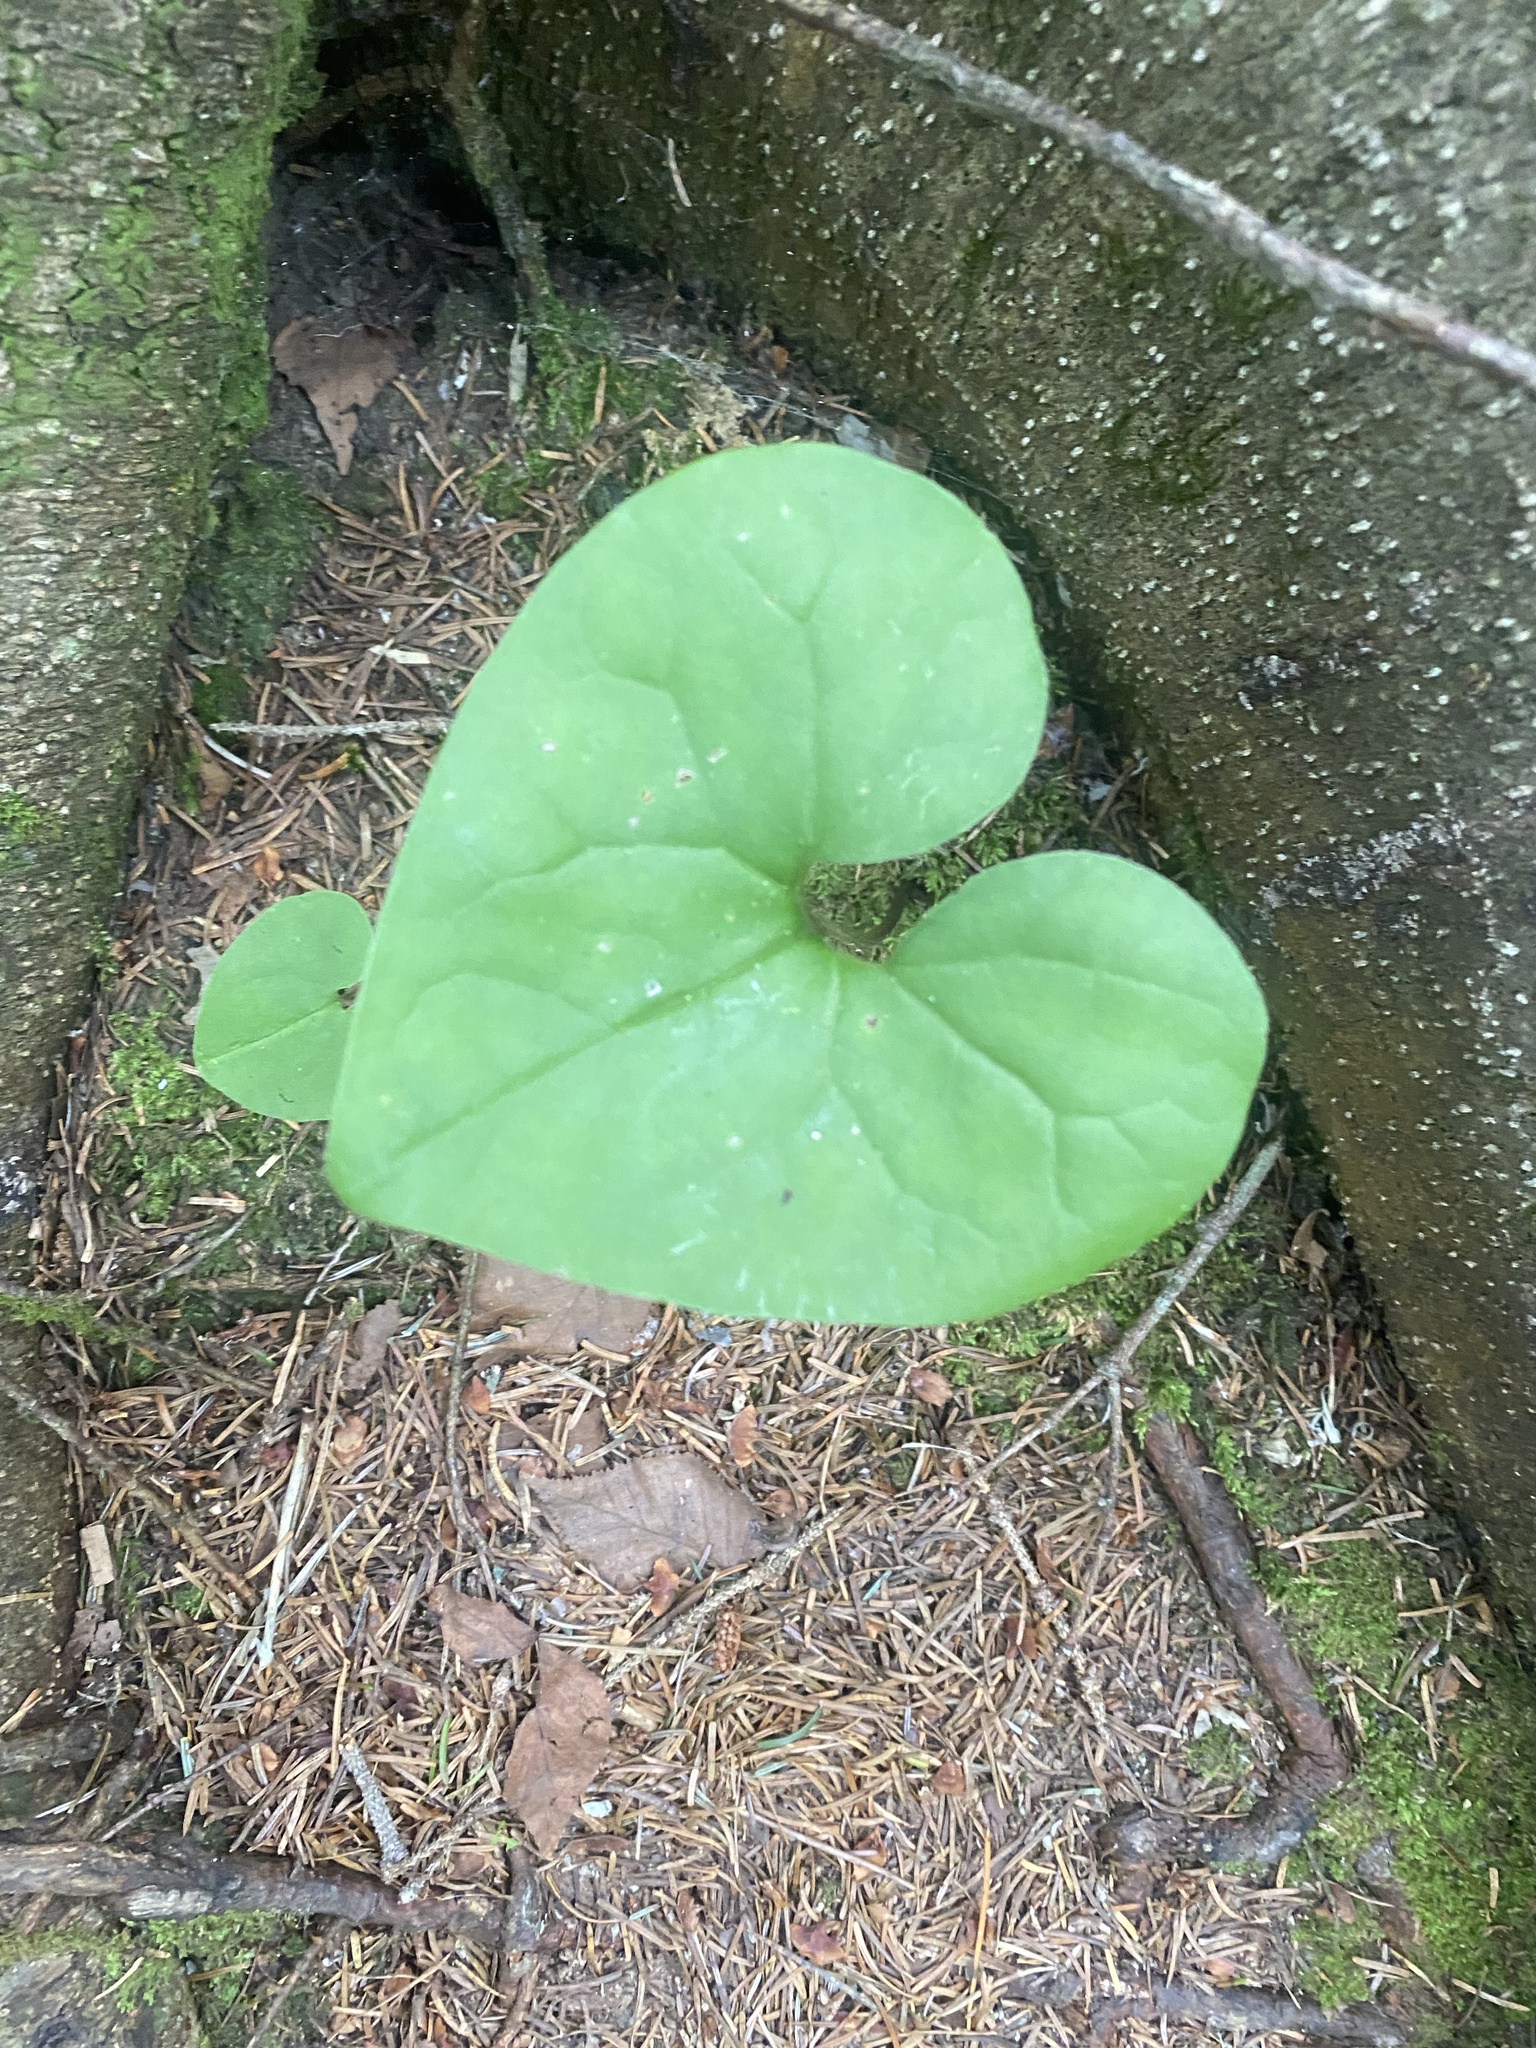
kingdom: Plantae
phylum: Tracheophyta
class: Magnoliopsida
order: Piperales
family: Aristolochiaceae
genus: Asarum
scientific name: Asarum heterotropoides
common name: Okuezo-saishin
